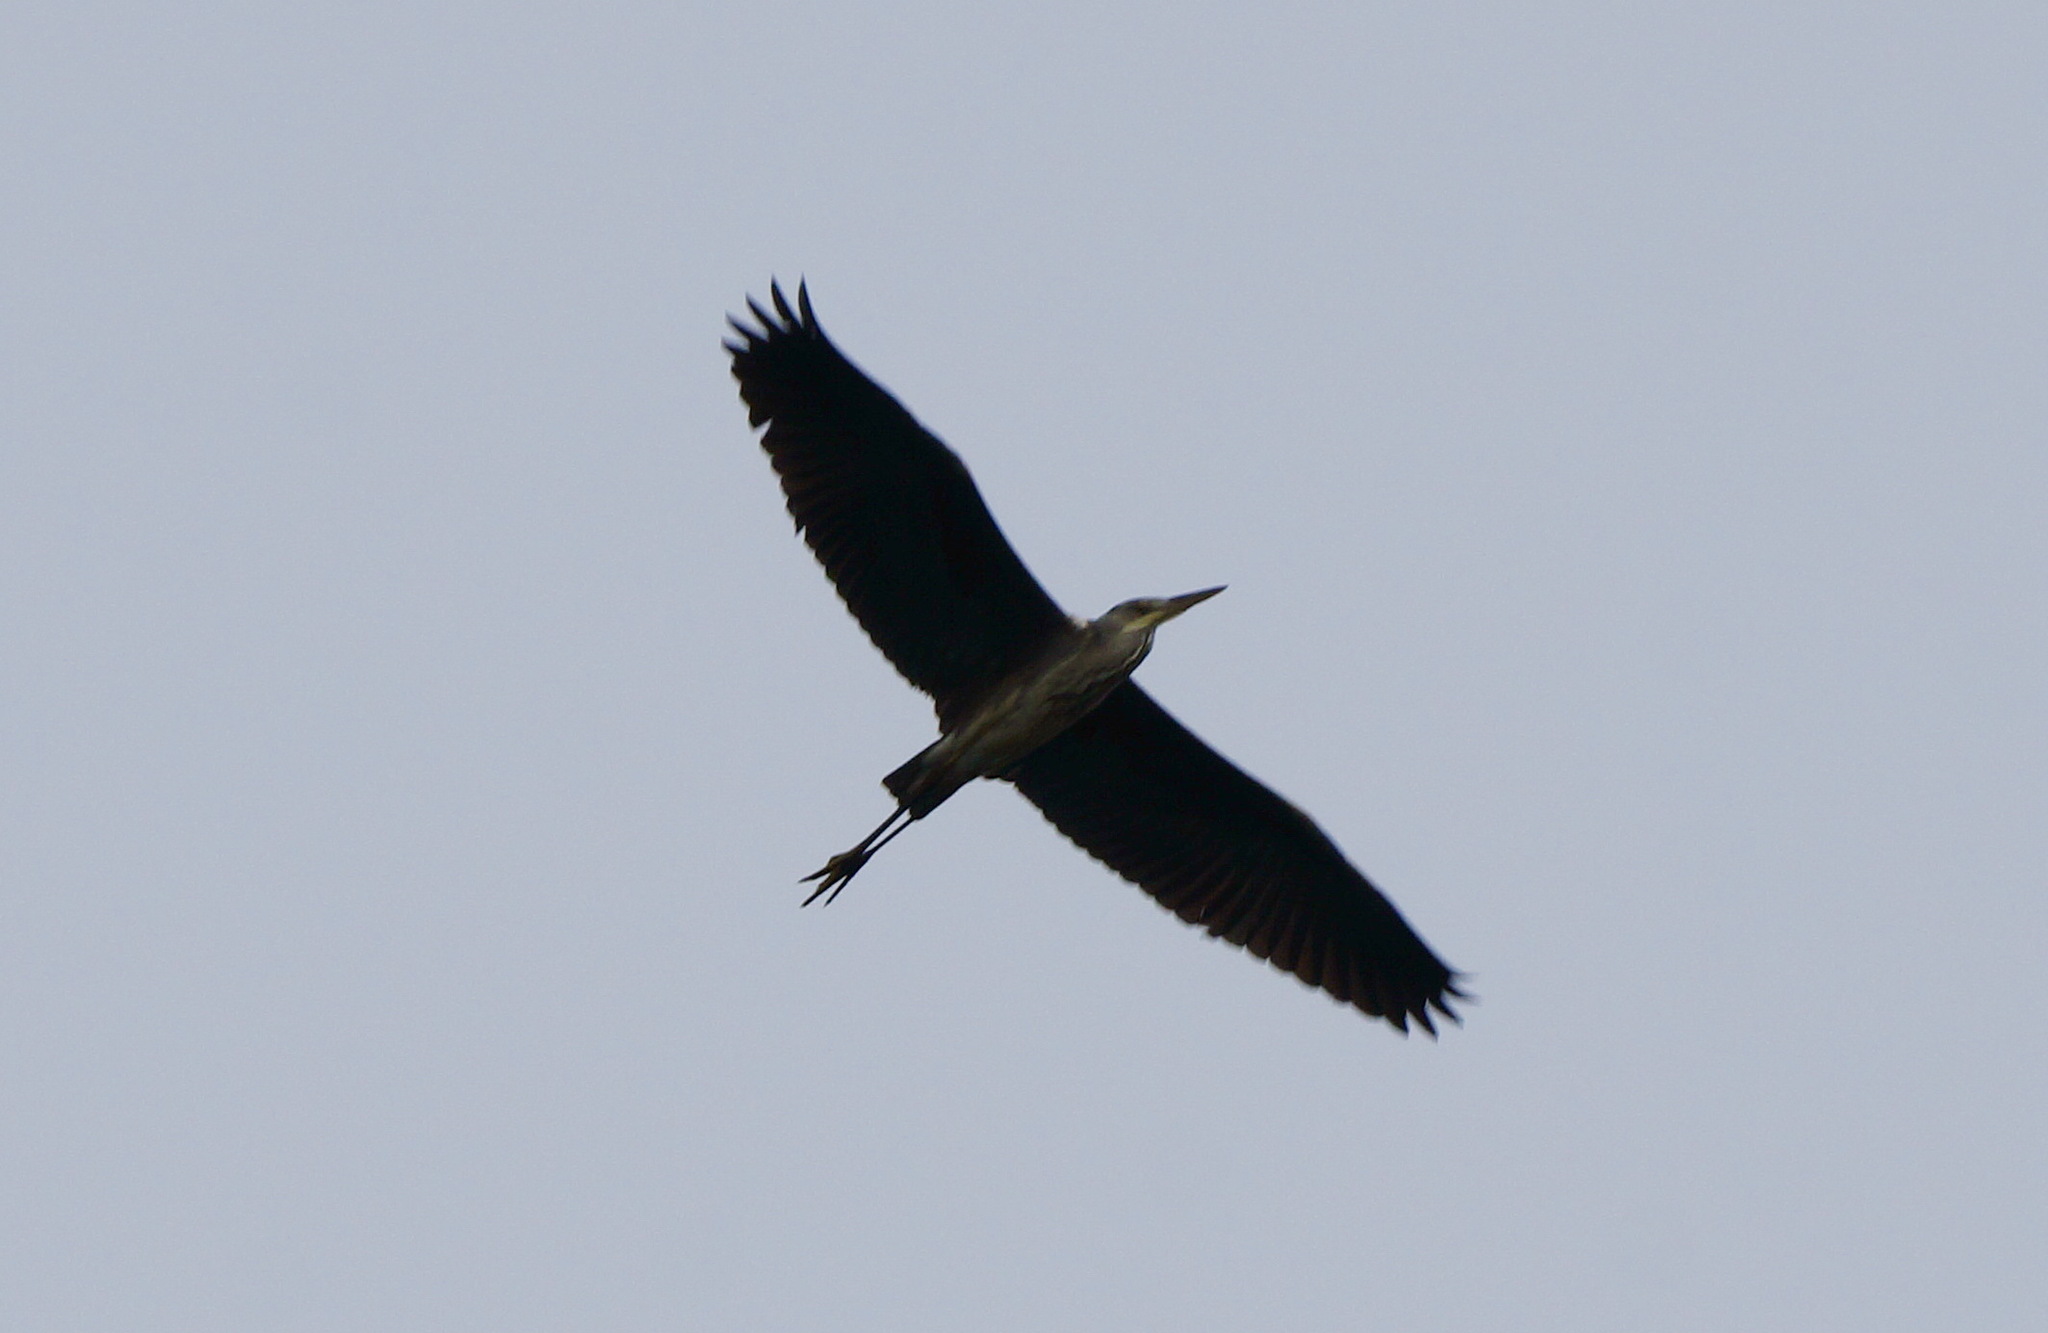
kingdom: Animalia
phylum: Chordata
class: Aves
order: Pelecaniformes
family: Ardeidae
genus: Ardea
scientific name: Ardea cinerea
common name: Grey heron
